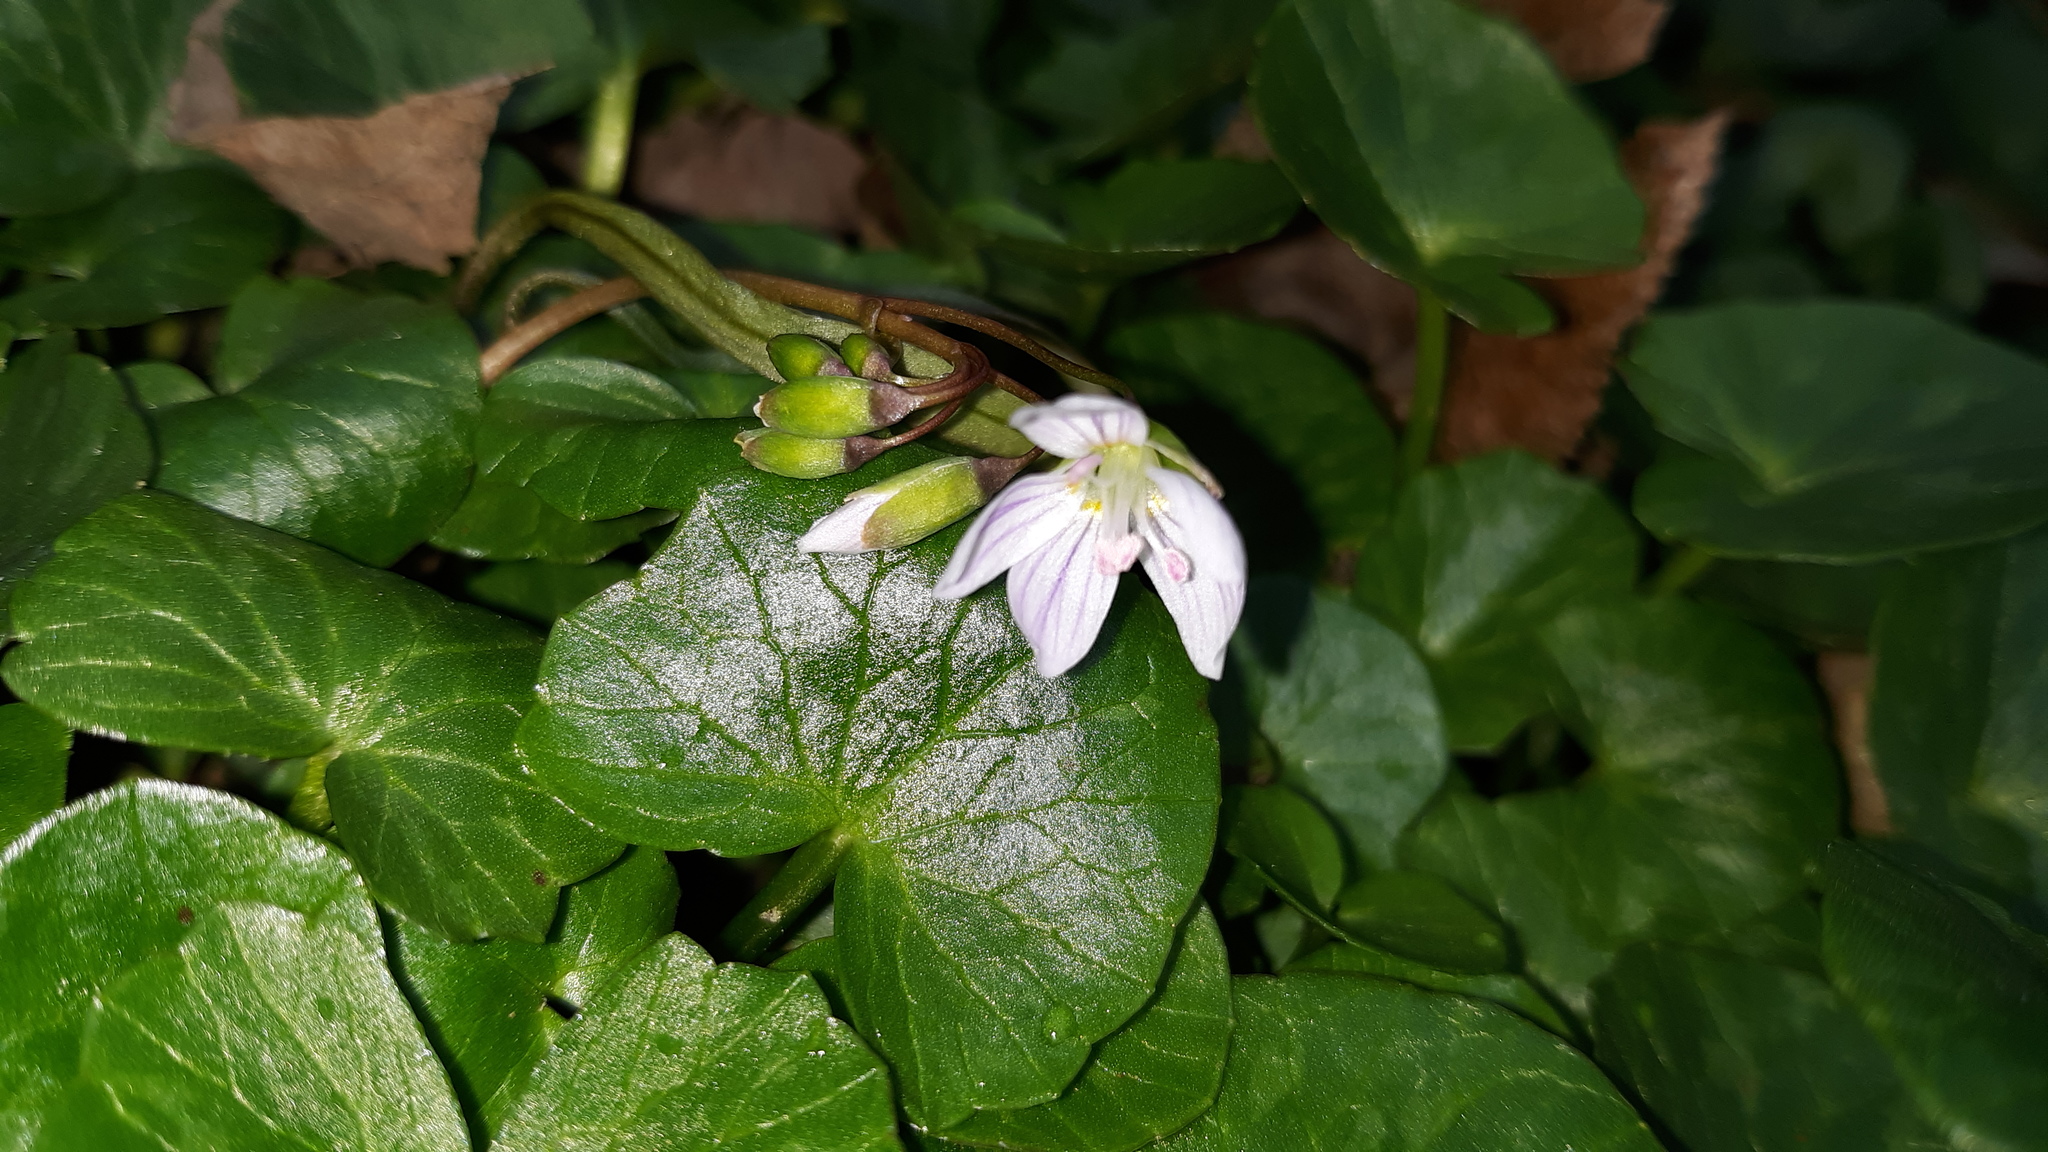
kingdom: Plantae
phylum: Tracheophyta
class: Magnoliopsida
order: Caryophyllales
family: Montiaceae
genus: Claytonia
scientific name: Claytonia virginica
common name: Virginia springbeauty
